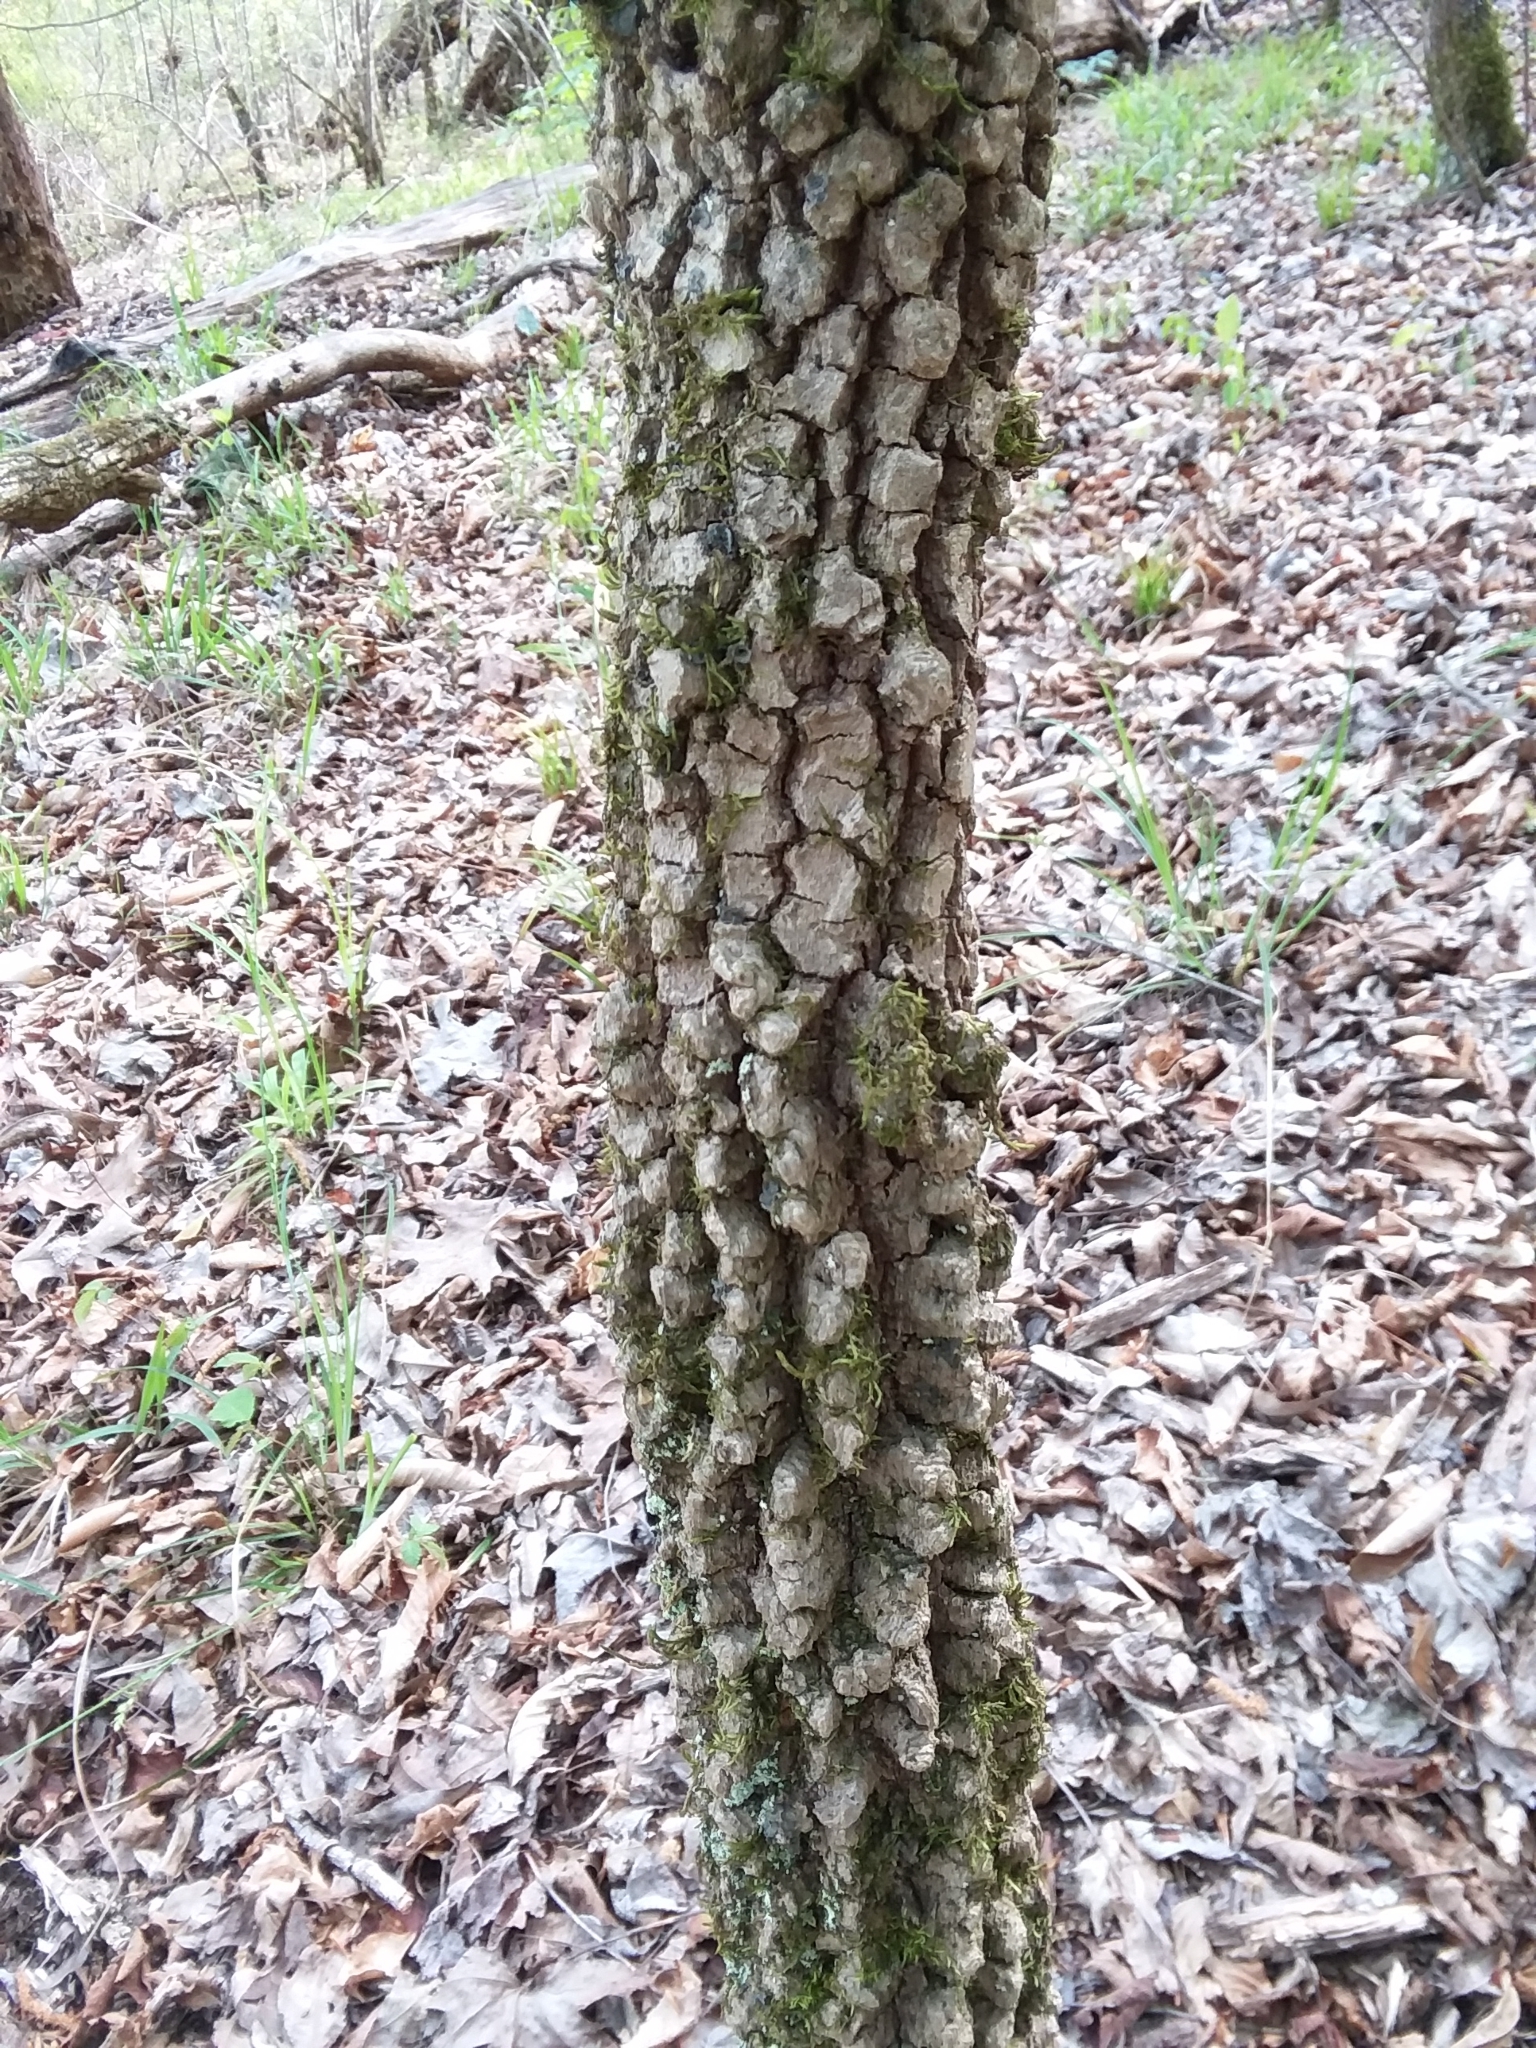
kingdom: Plantae
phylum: Tracheophyta
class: Magnoliopsida
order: Dipsacales
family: Viburnaceae
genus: Viburnum
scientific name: Viburnum rufidulum
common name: Blue haw
